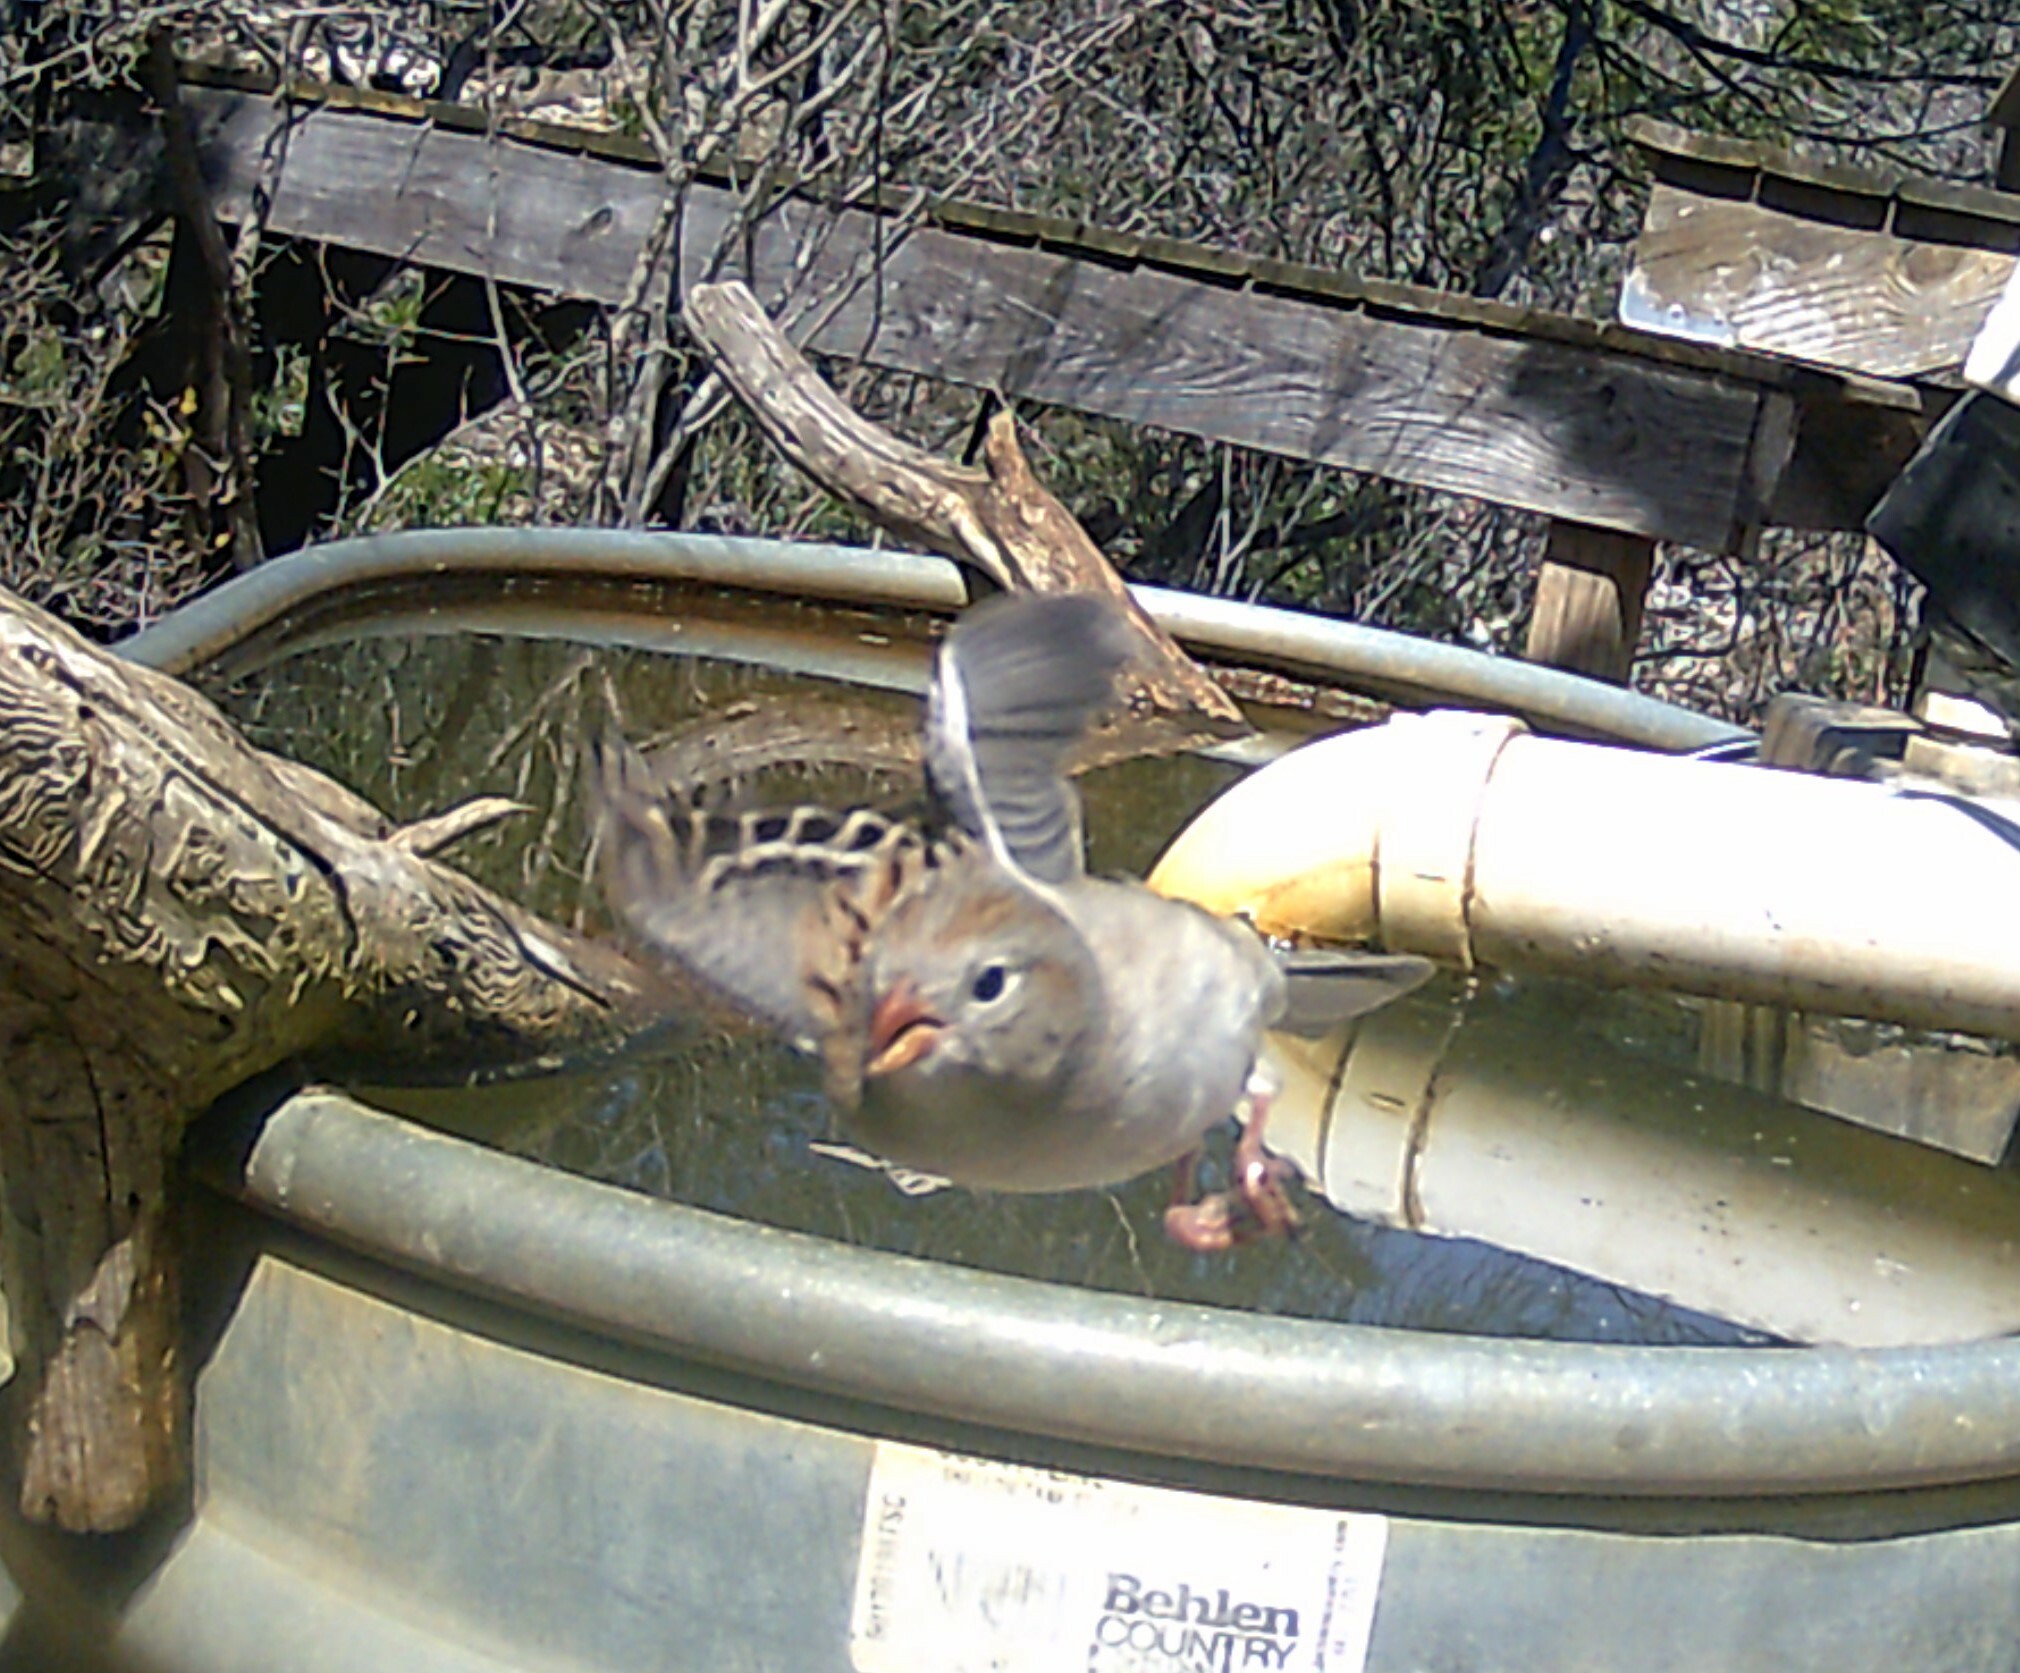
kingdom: Animalia
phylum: Chordata
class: Aves
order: Passeriformes
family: Passerellidae
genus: Spizella
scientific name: Spizella pusilla
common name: Field sparrow
